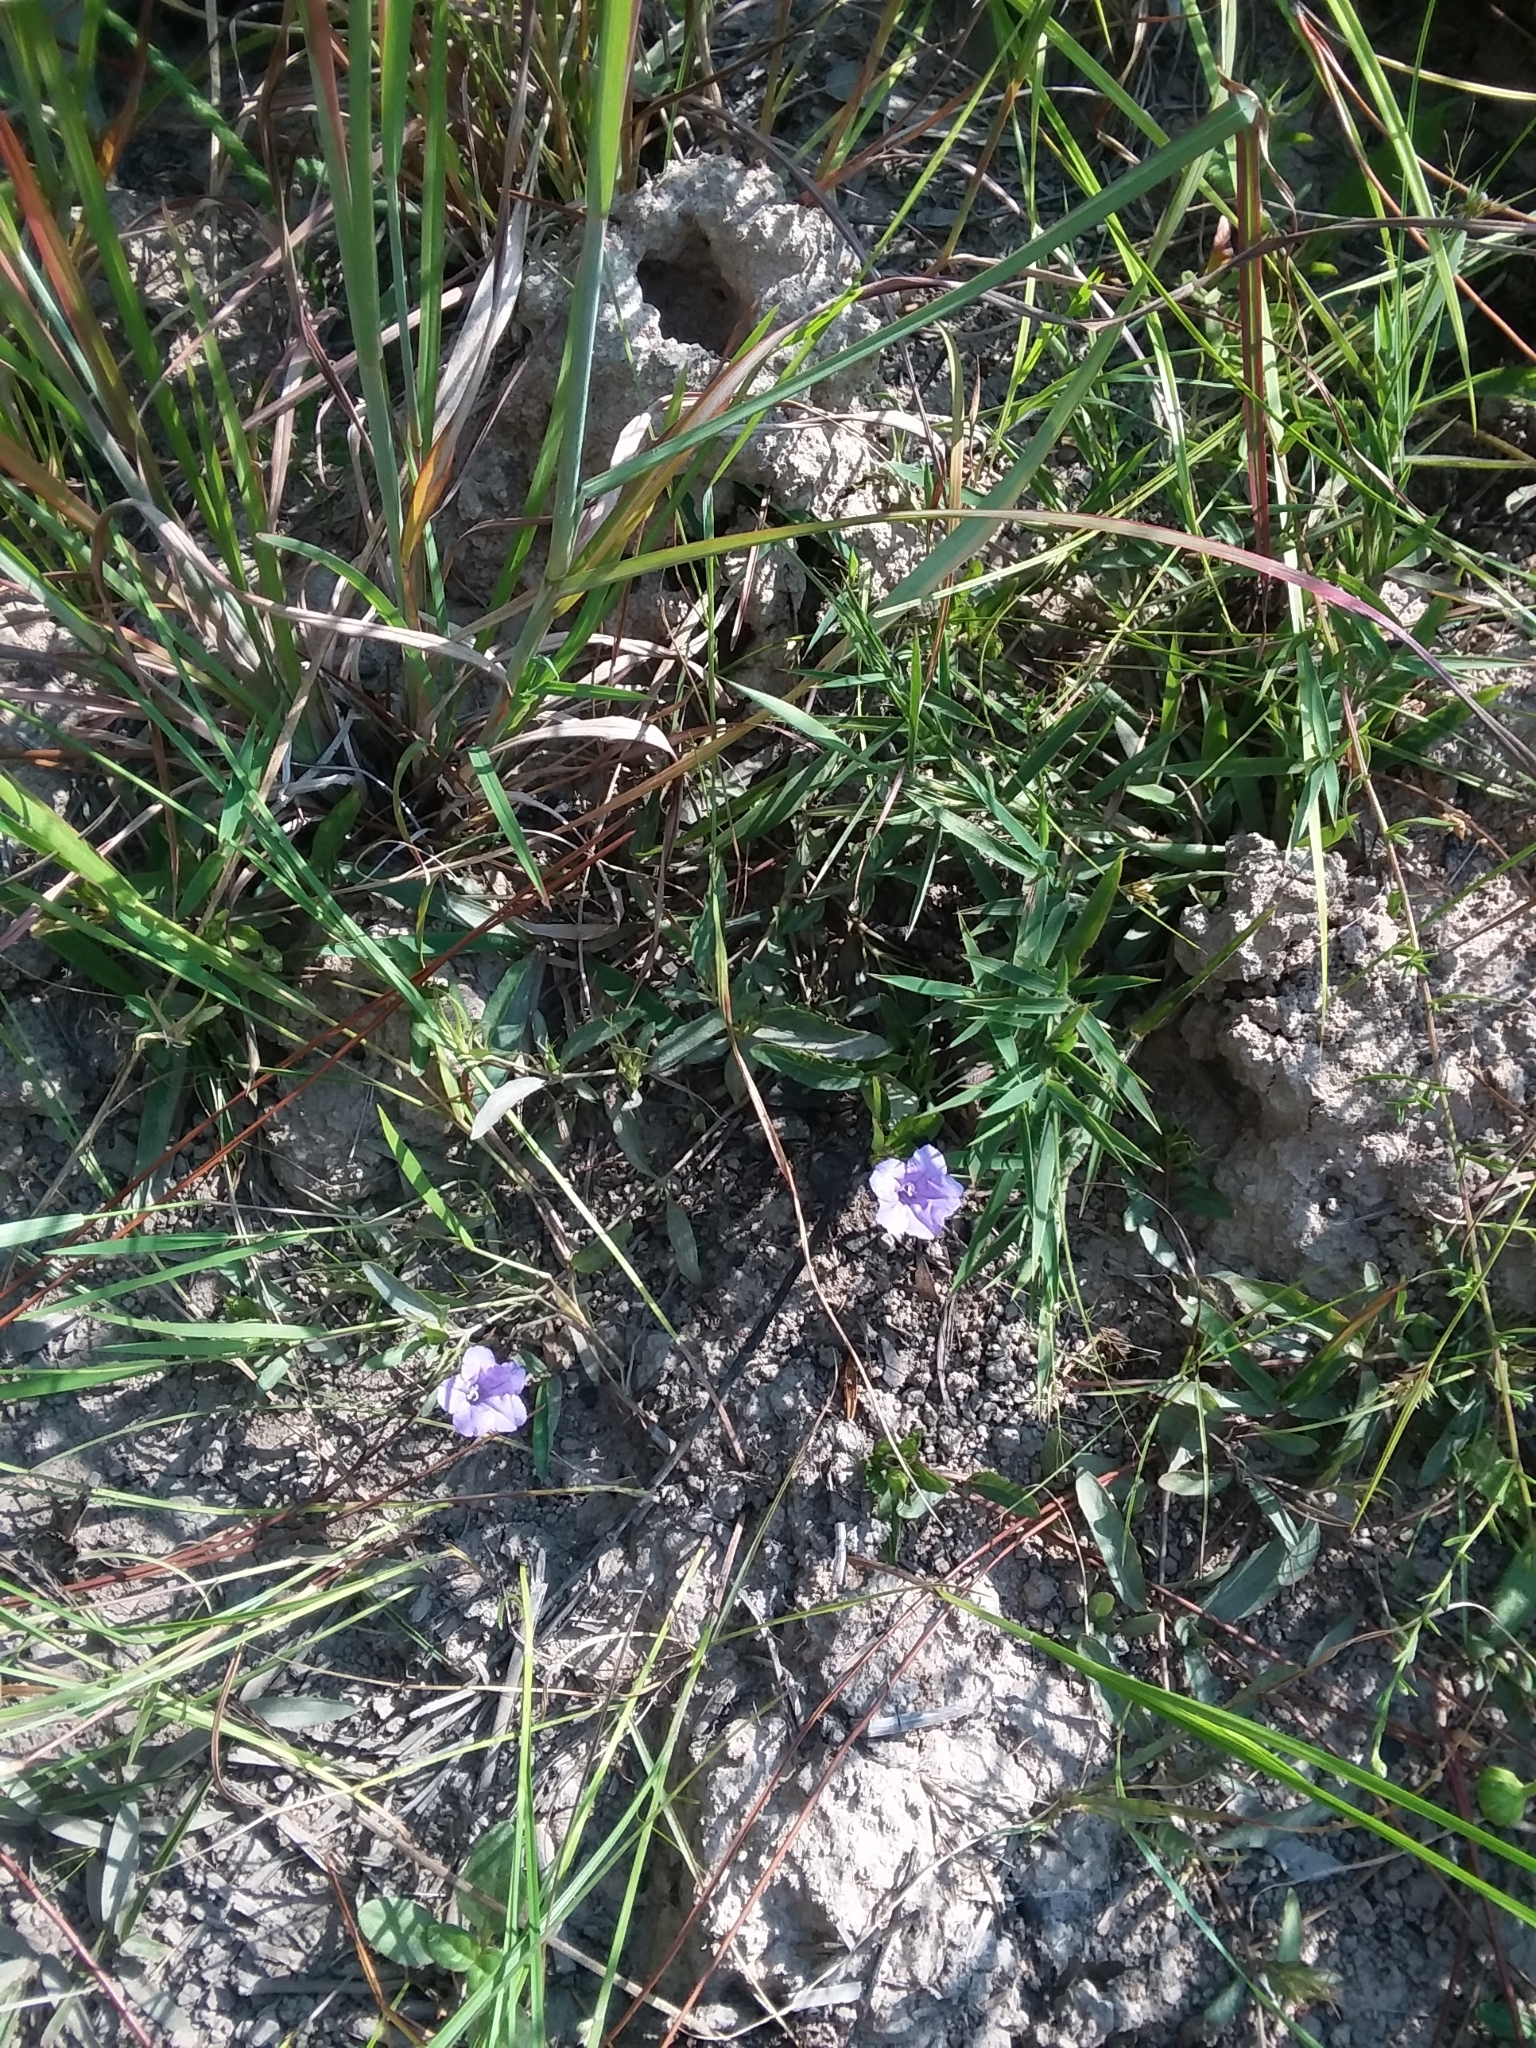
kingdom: Plantae
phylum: Tracheophyta
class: Magnoliopsida
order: Lamiales
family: Acanthaceae
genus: Ruellia
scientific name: Ruellia pedunculata
